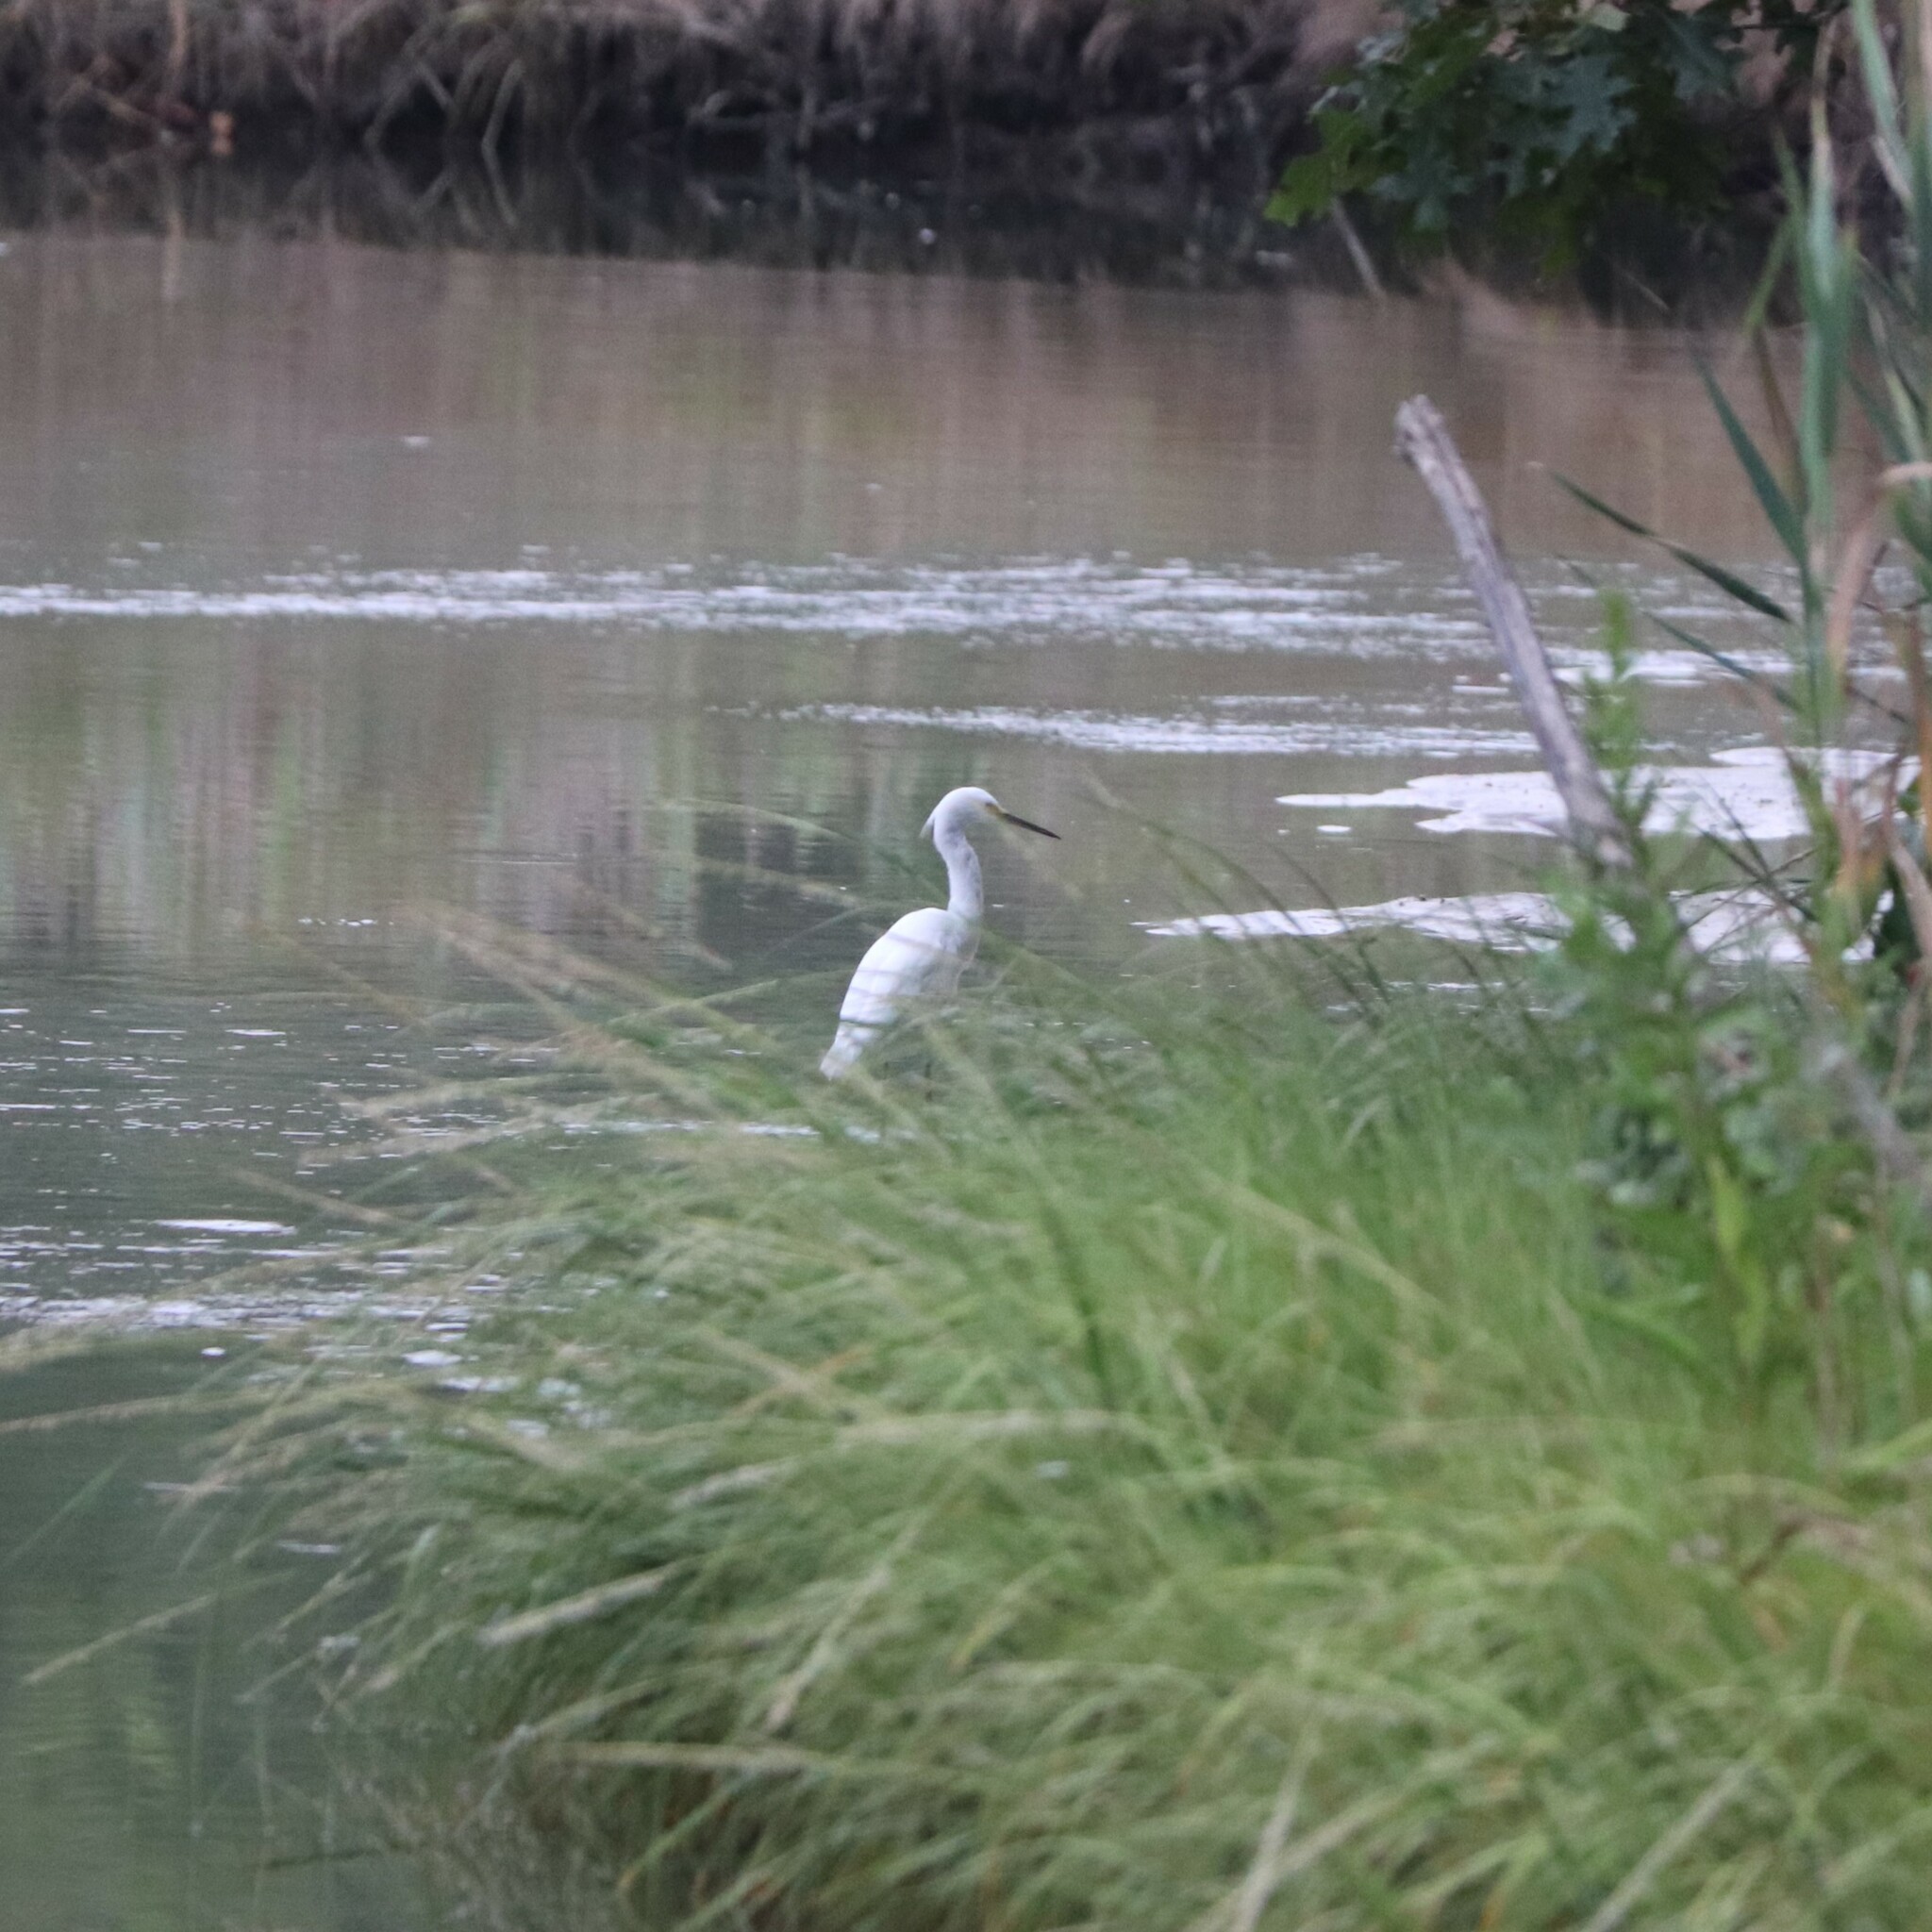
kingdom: Animalia
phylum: Chordata
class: Aves
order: Pelecaniformes
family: Ardeidae
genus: Egretta
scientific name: Egretta thula
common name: Snowy egret
